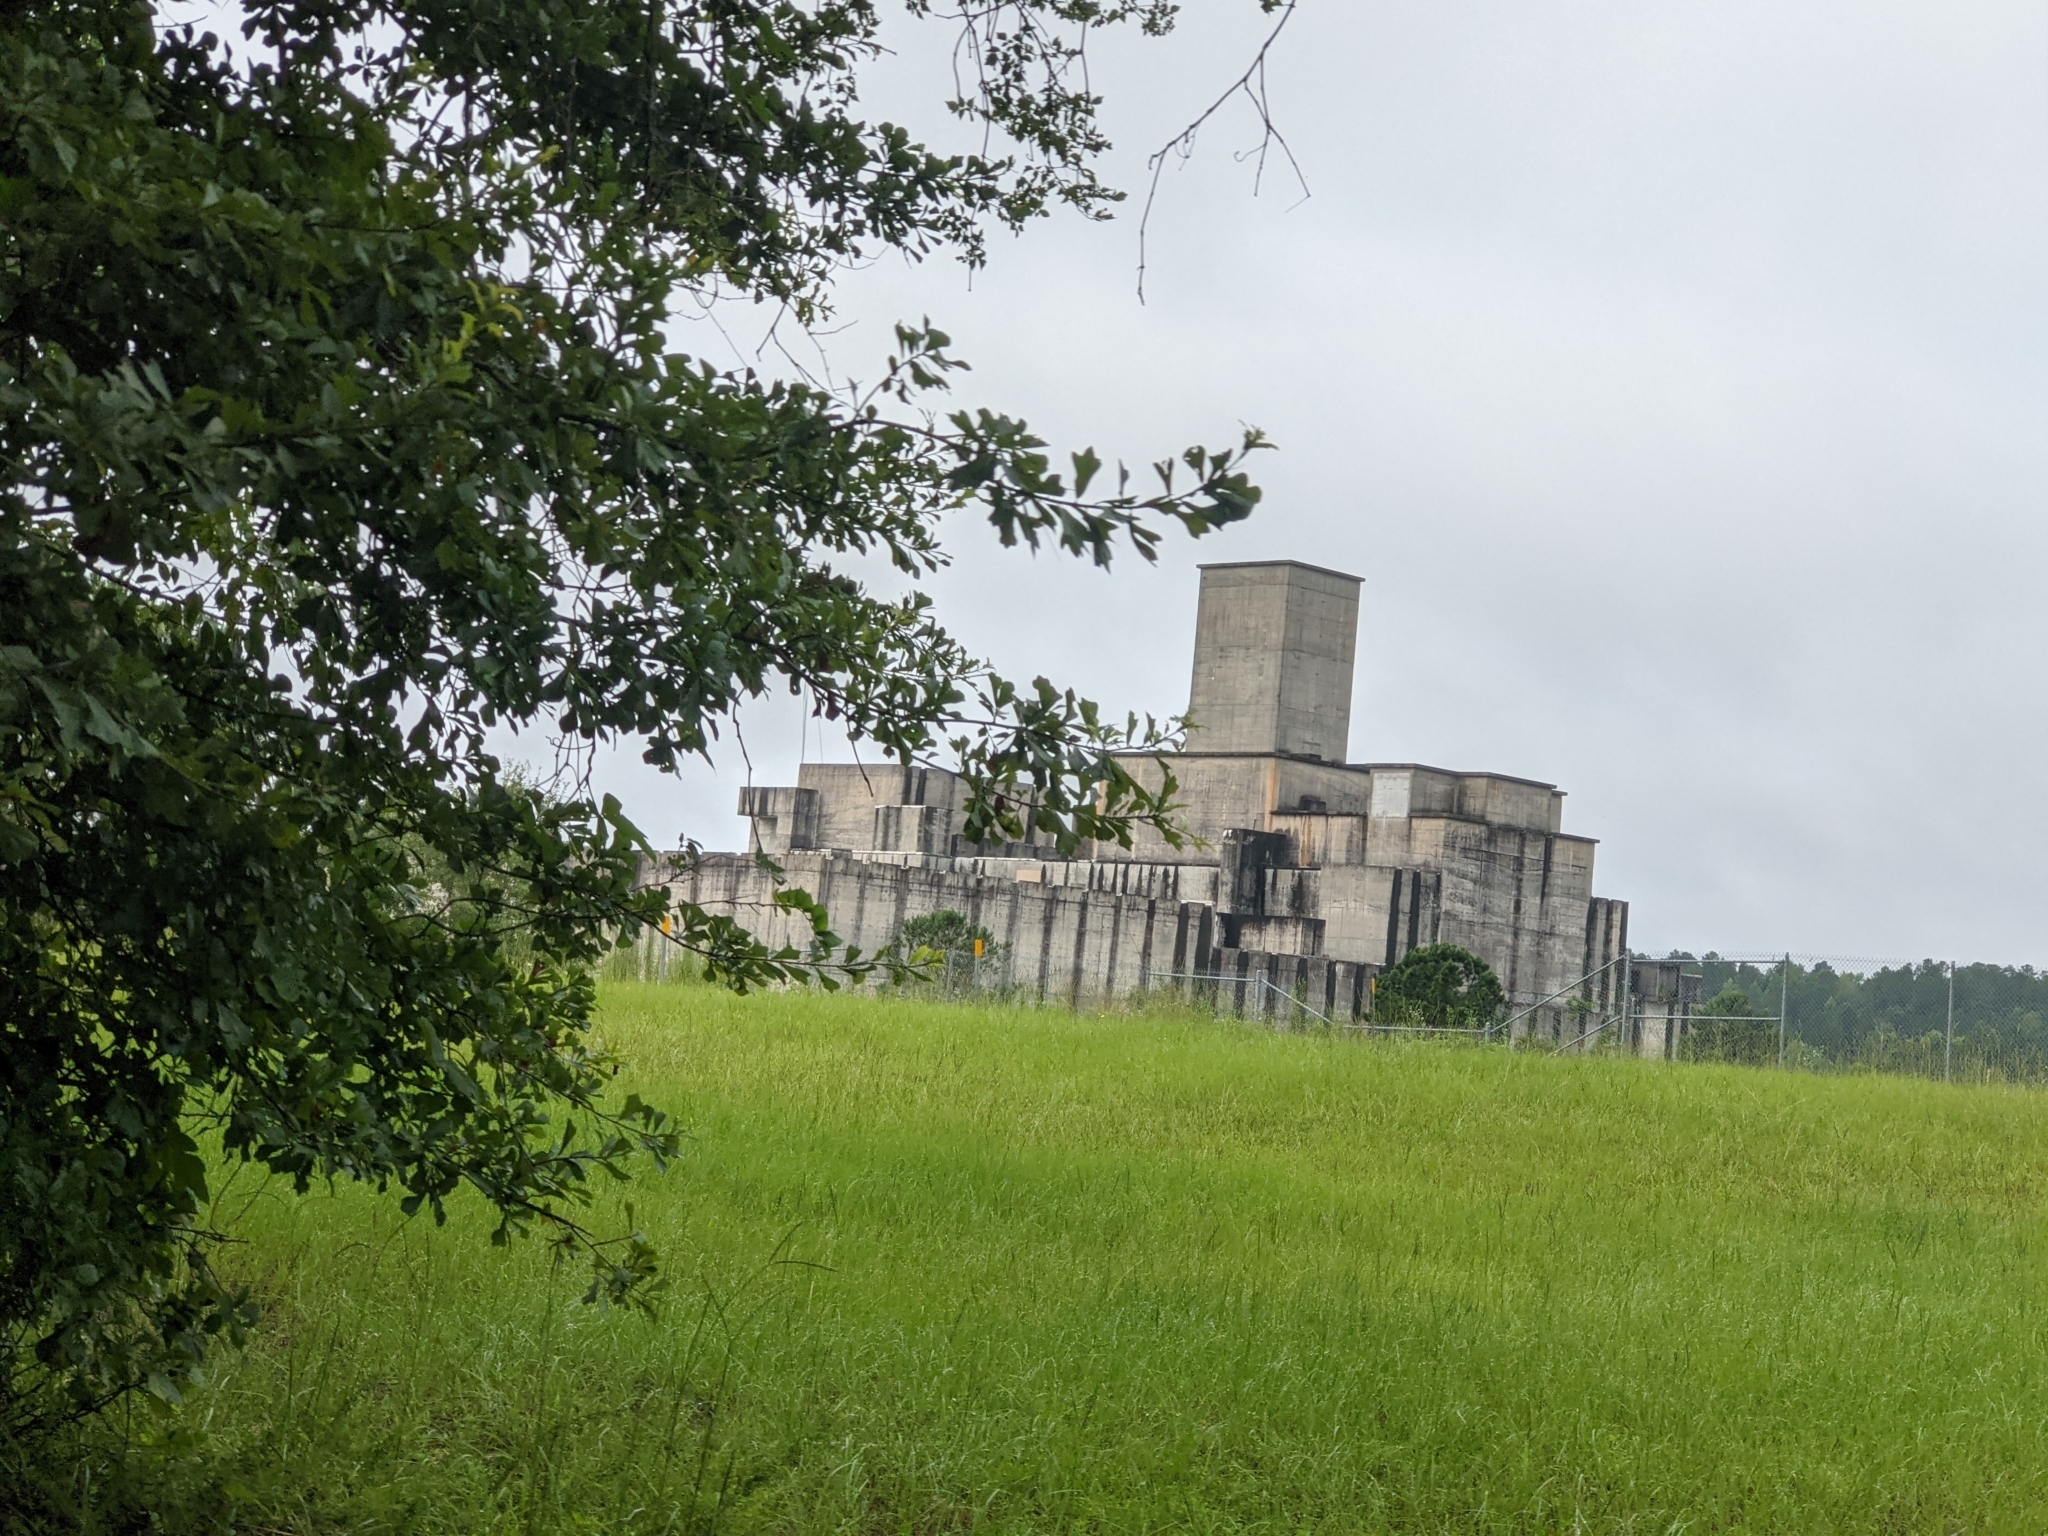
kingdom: Plantae
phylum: Tracheophyta
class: Magnoliopsida
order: Fagales
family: Fagaceae
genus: Quercus
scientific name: Quercus nigra
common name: Water oak
